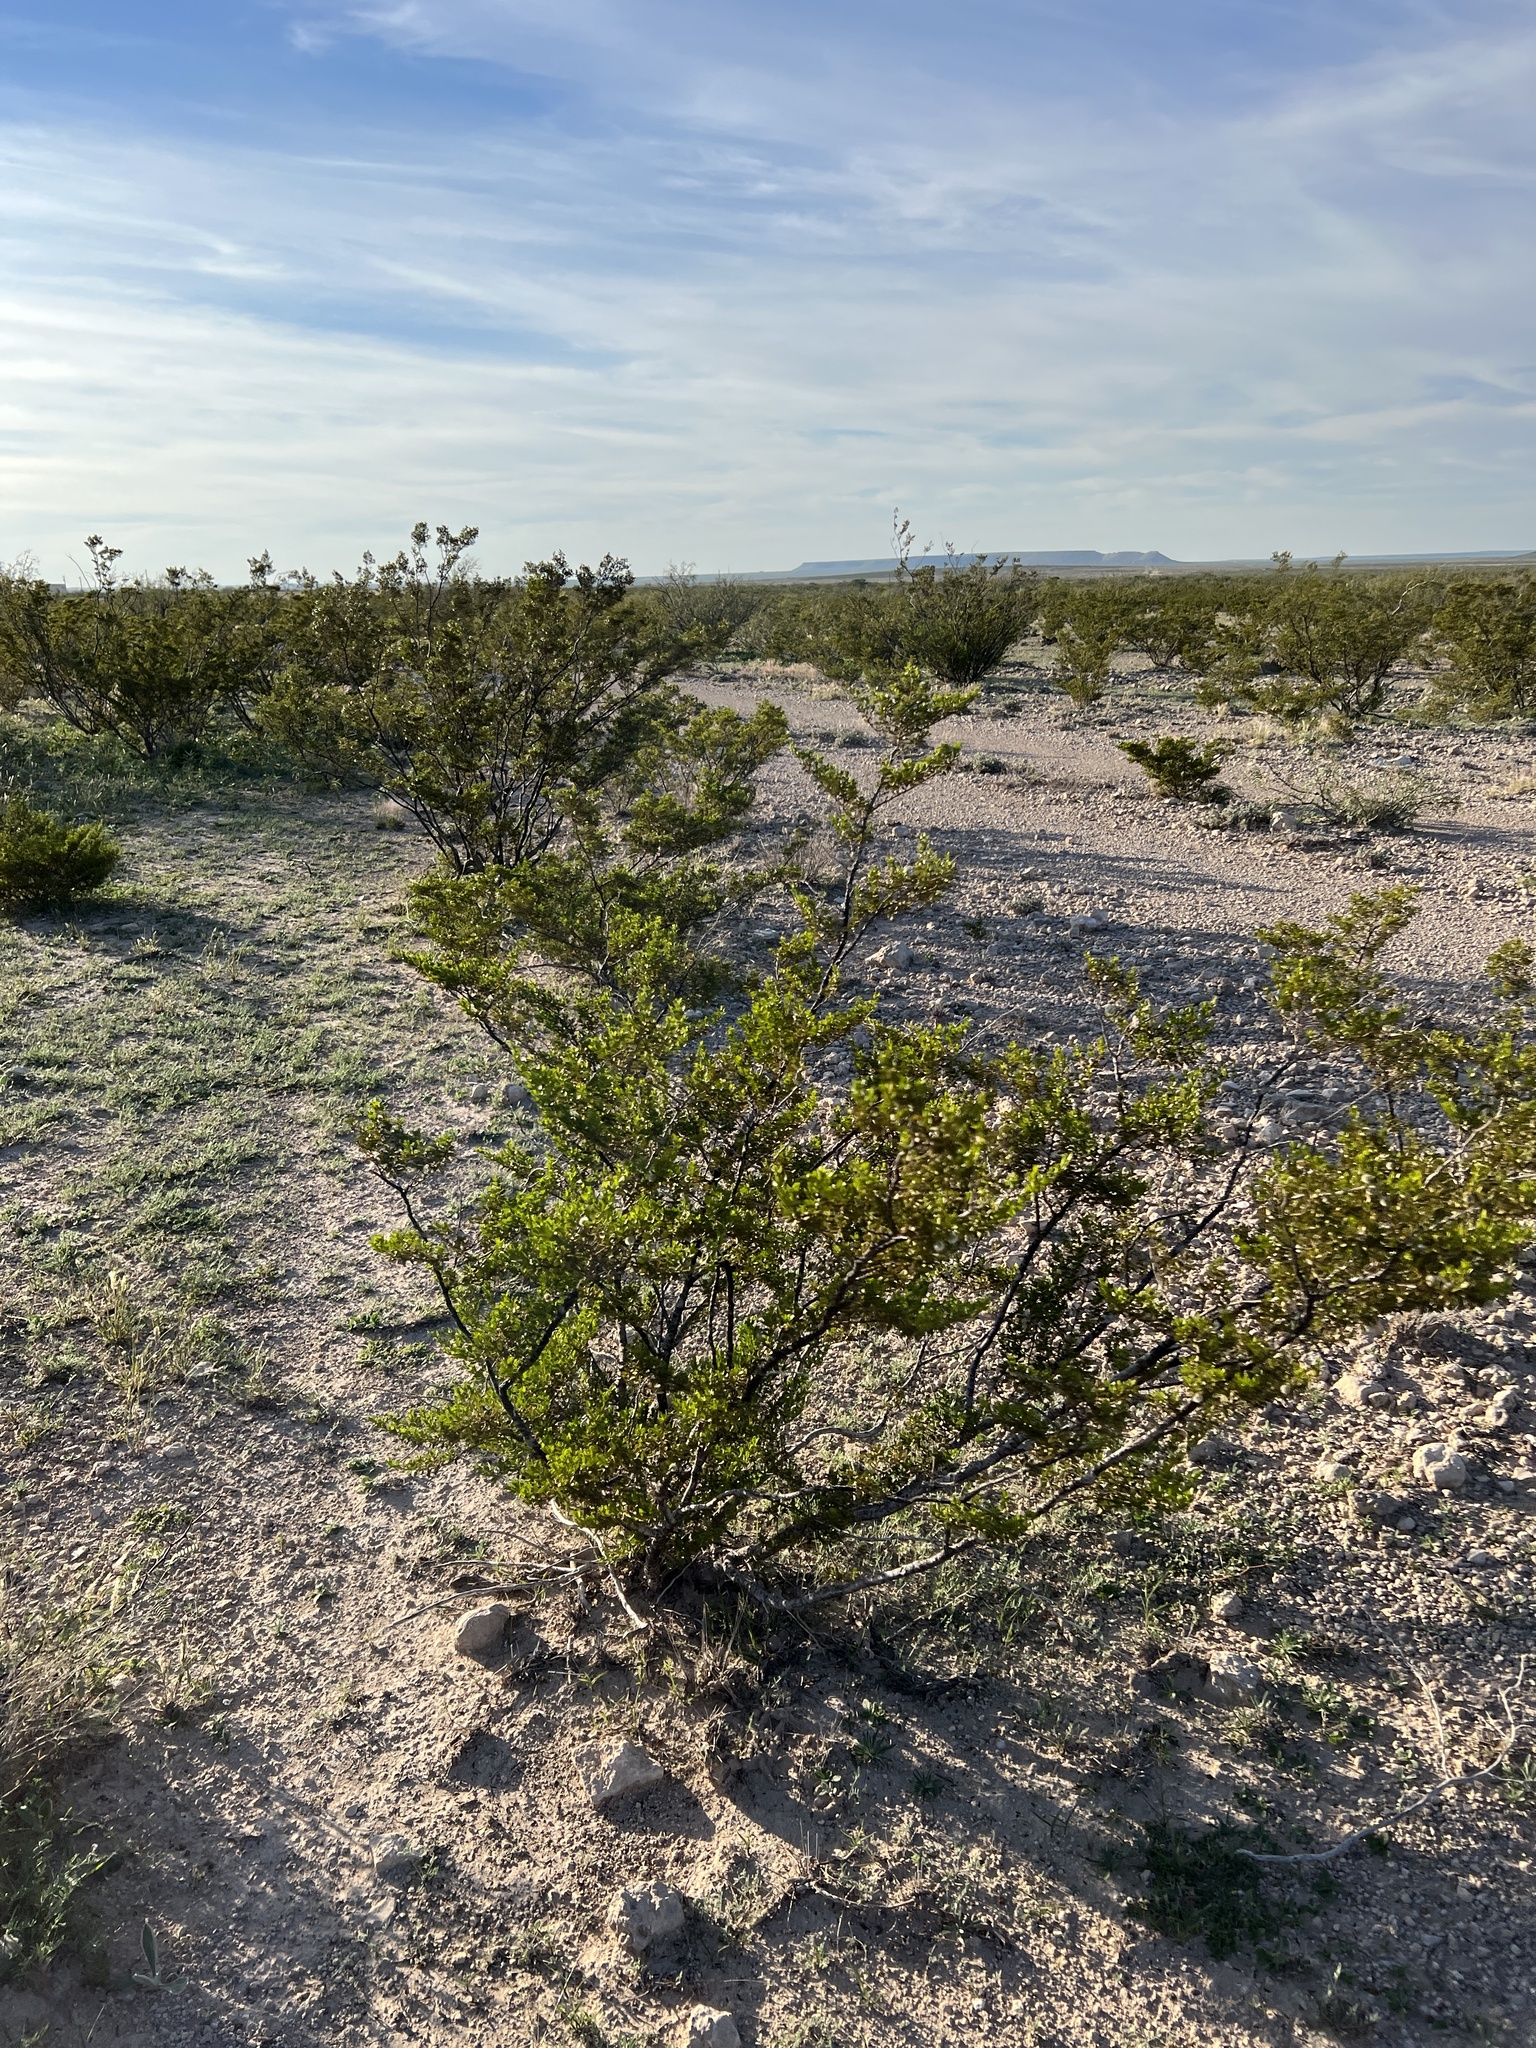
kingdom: Plantae
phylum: Tracheophyta
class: Magnoliopsida
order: Zygophyllales
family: Zygophyllaceae
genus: Larrea
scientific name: Larrea tridentata
